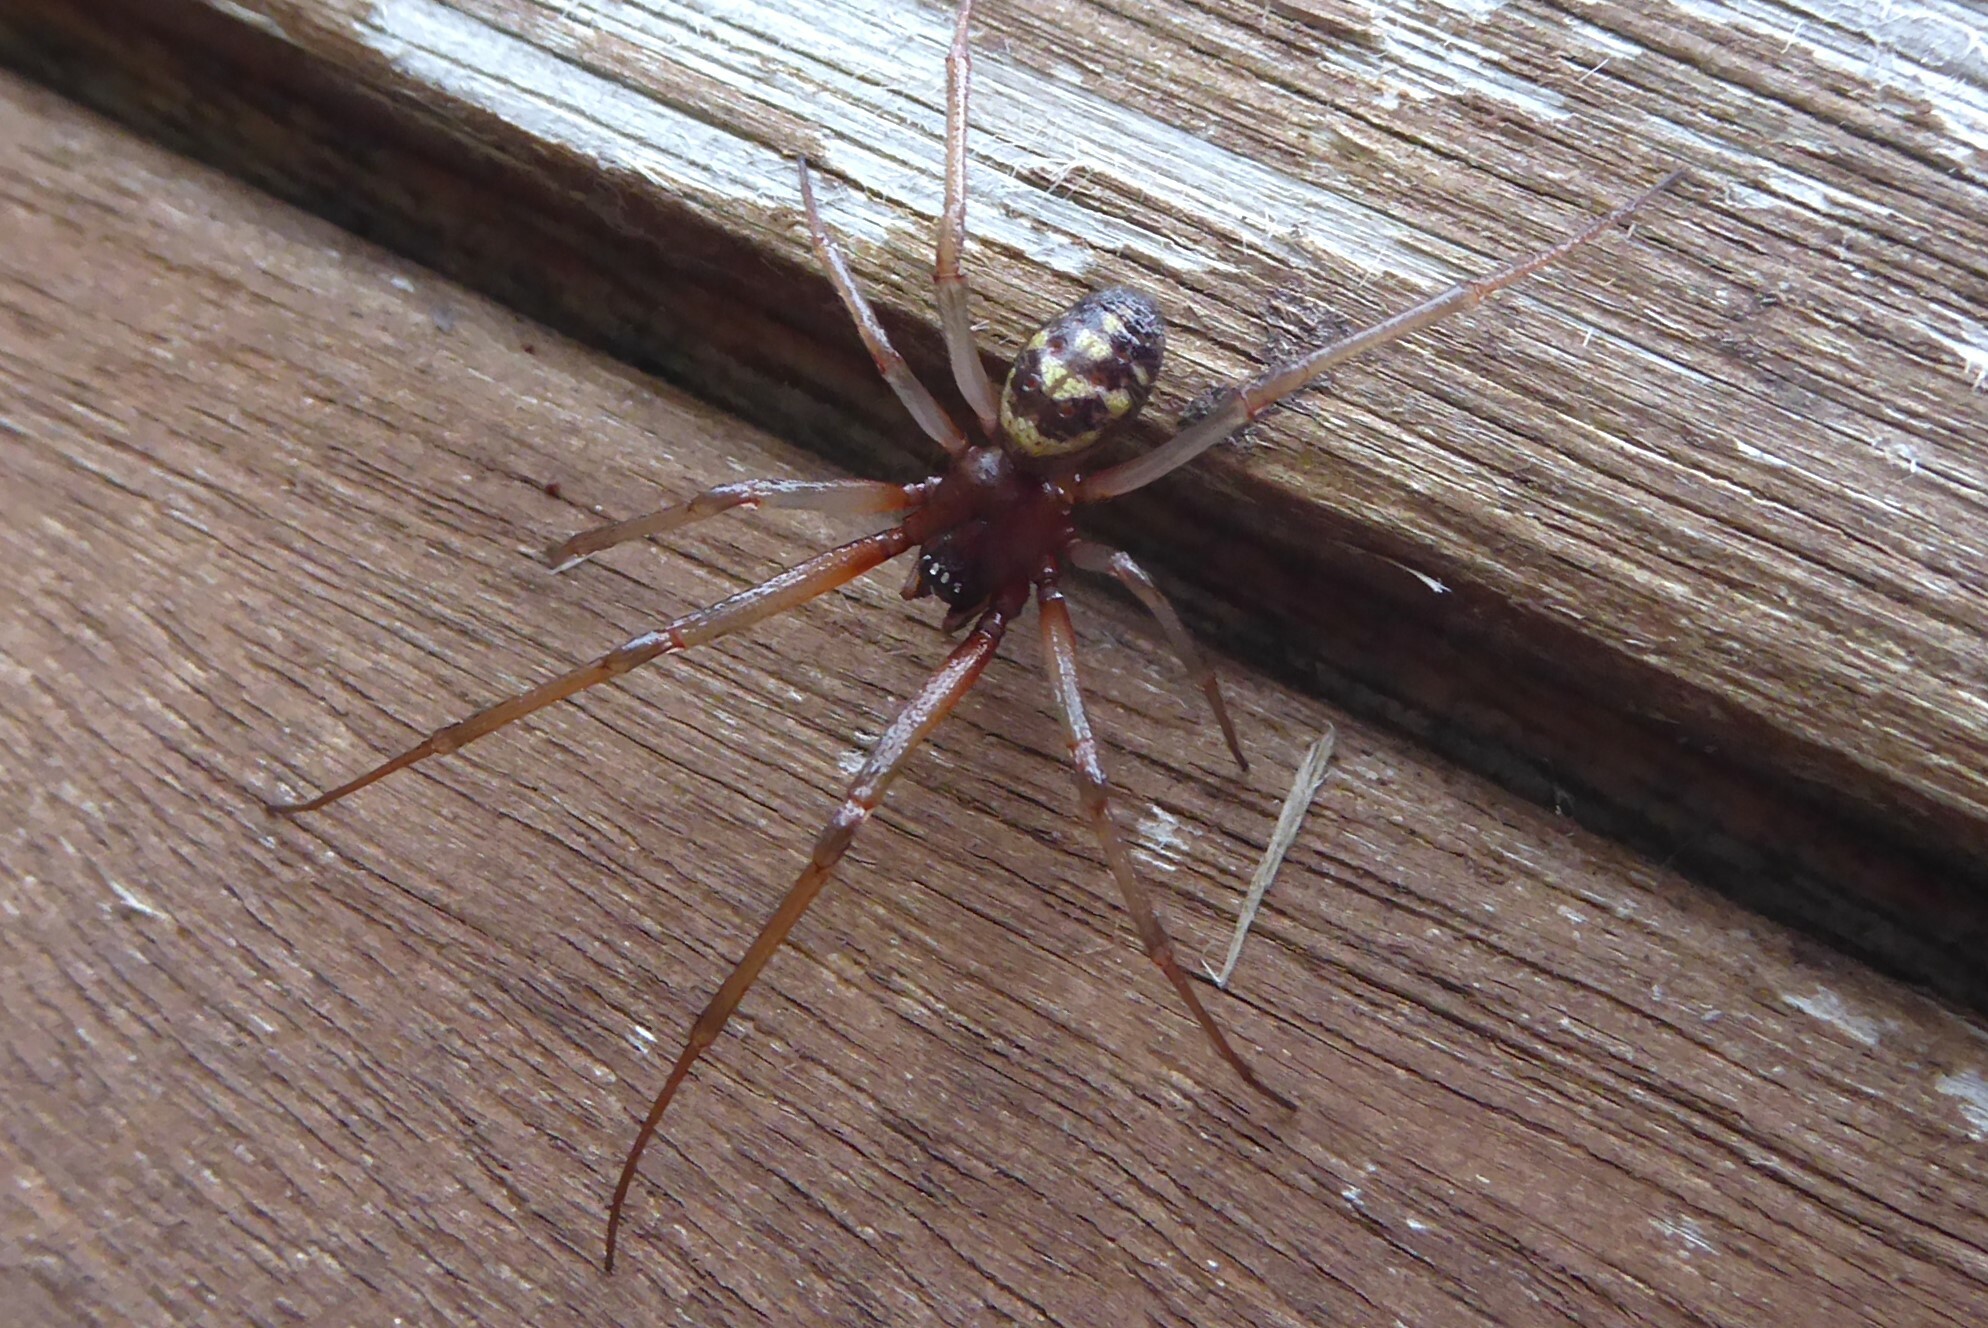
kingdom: Animalia
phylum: Arthropoda
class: Arachnida
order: Araneae
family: Theridiidae
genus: Steatoda
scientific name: Steatoda grossa
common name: False black widow
